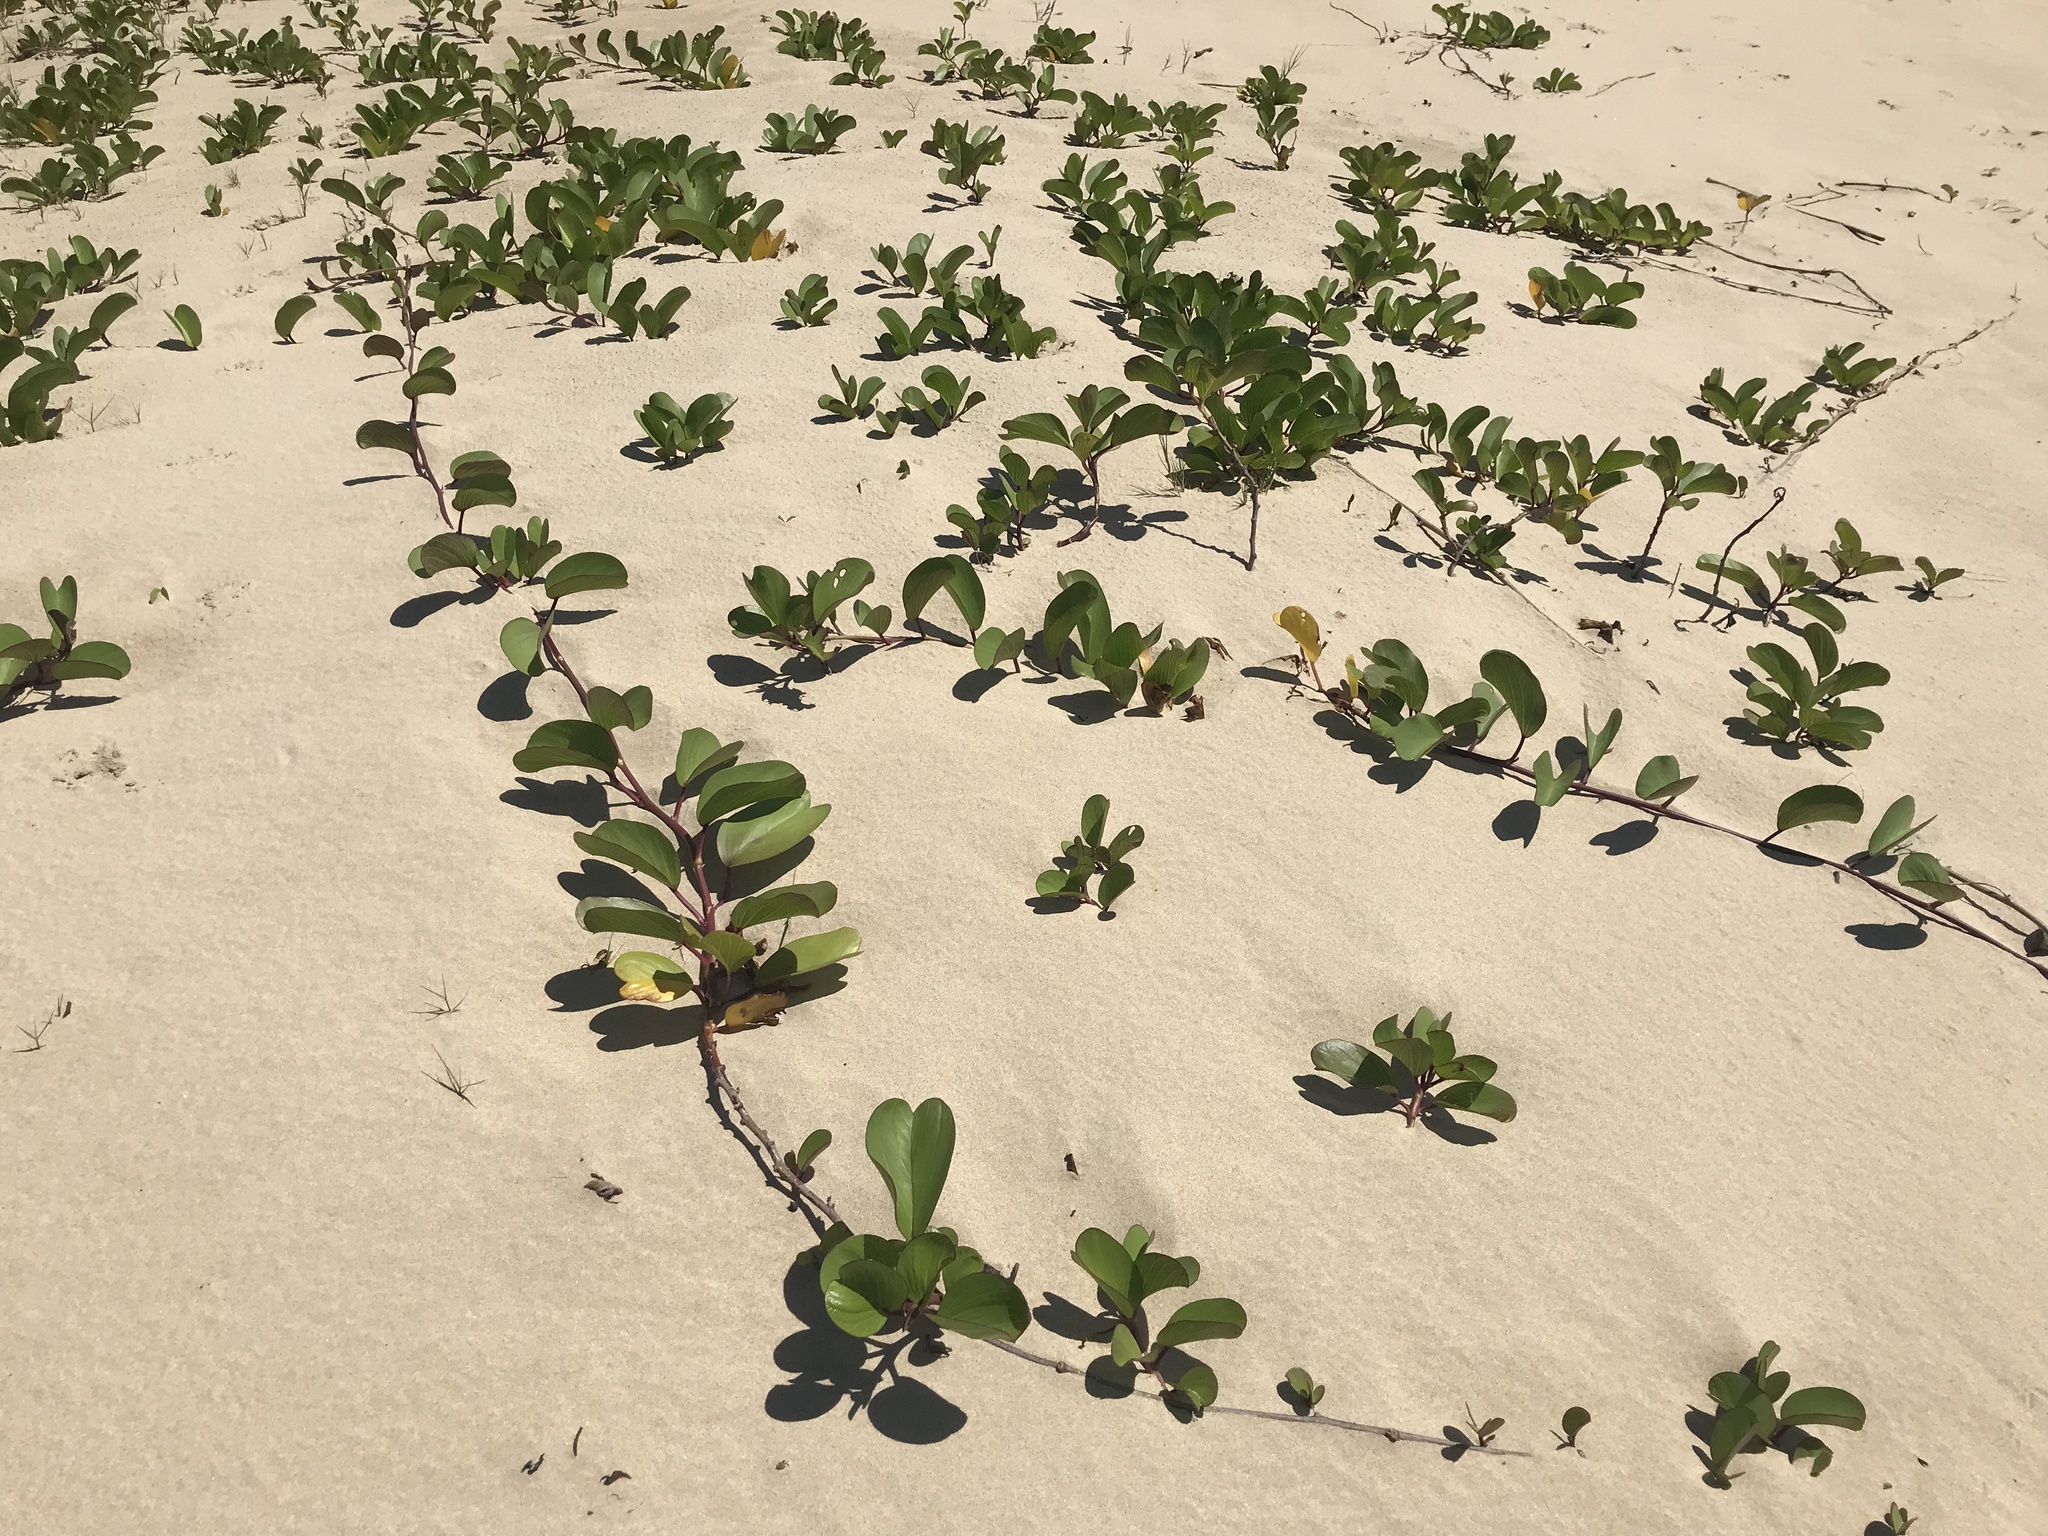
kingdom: Plantae
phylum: Tracheophyta
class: Magnoliopsida
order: Solanales
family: Convolvulaceae
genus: Ipomoea
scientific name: Ipomoea pes-caprae
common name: Beach morning glory
